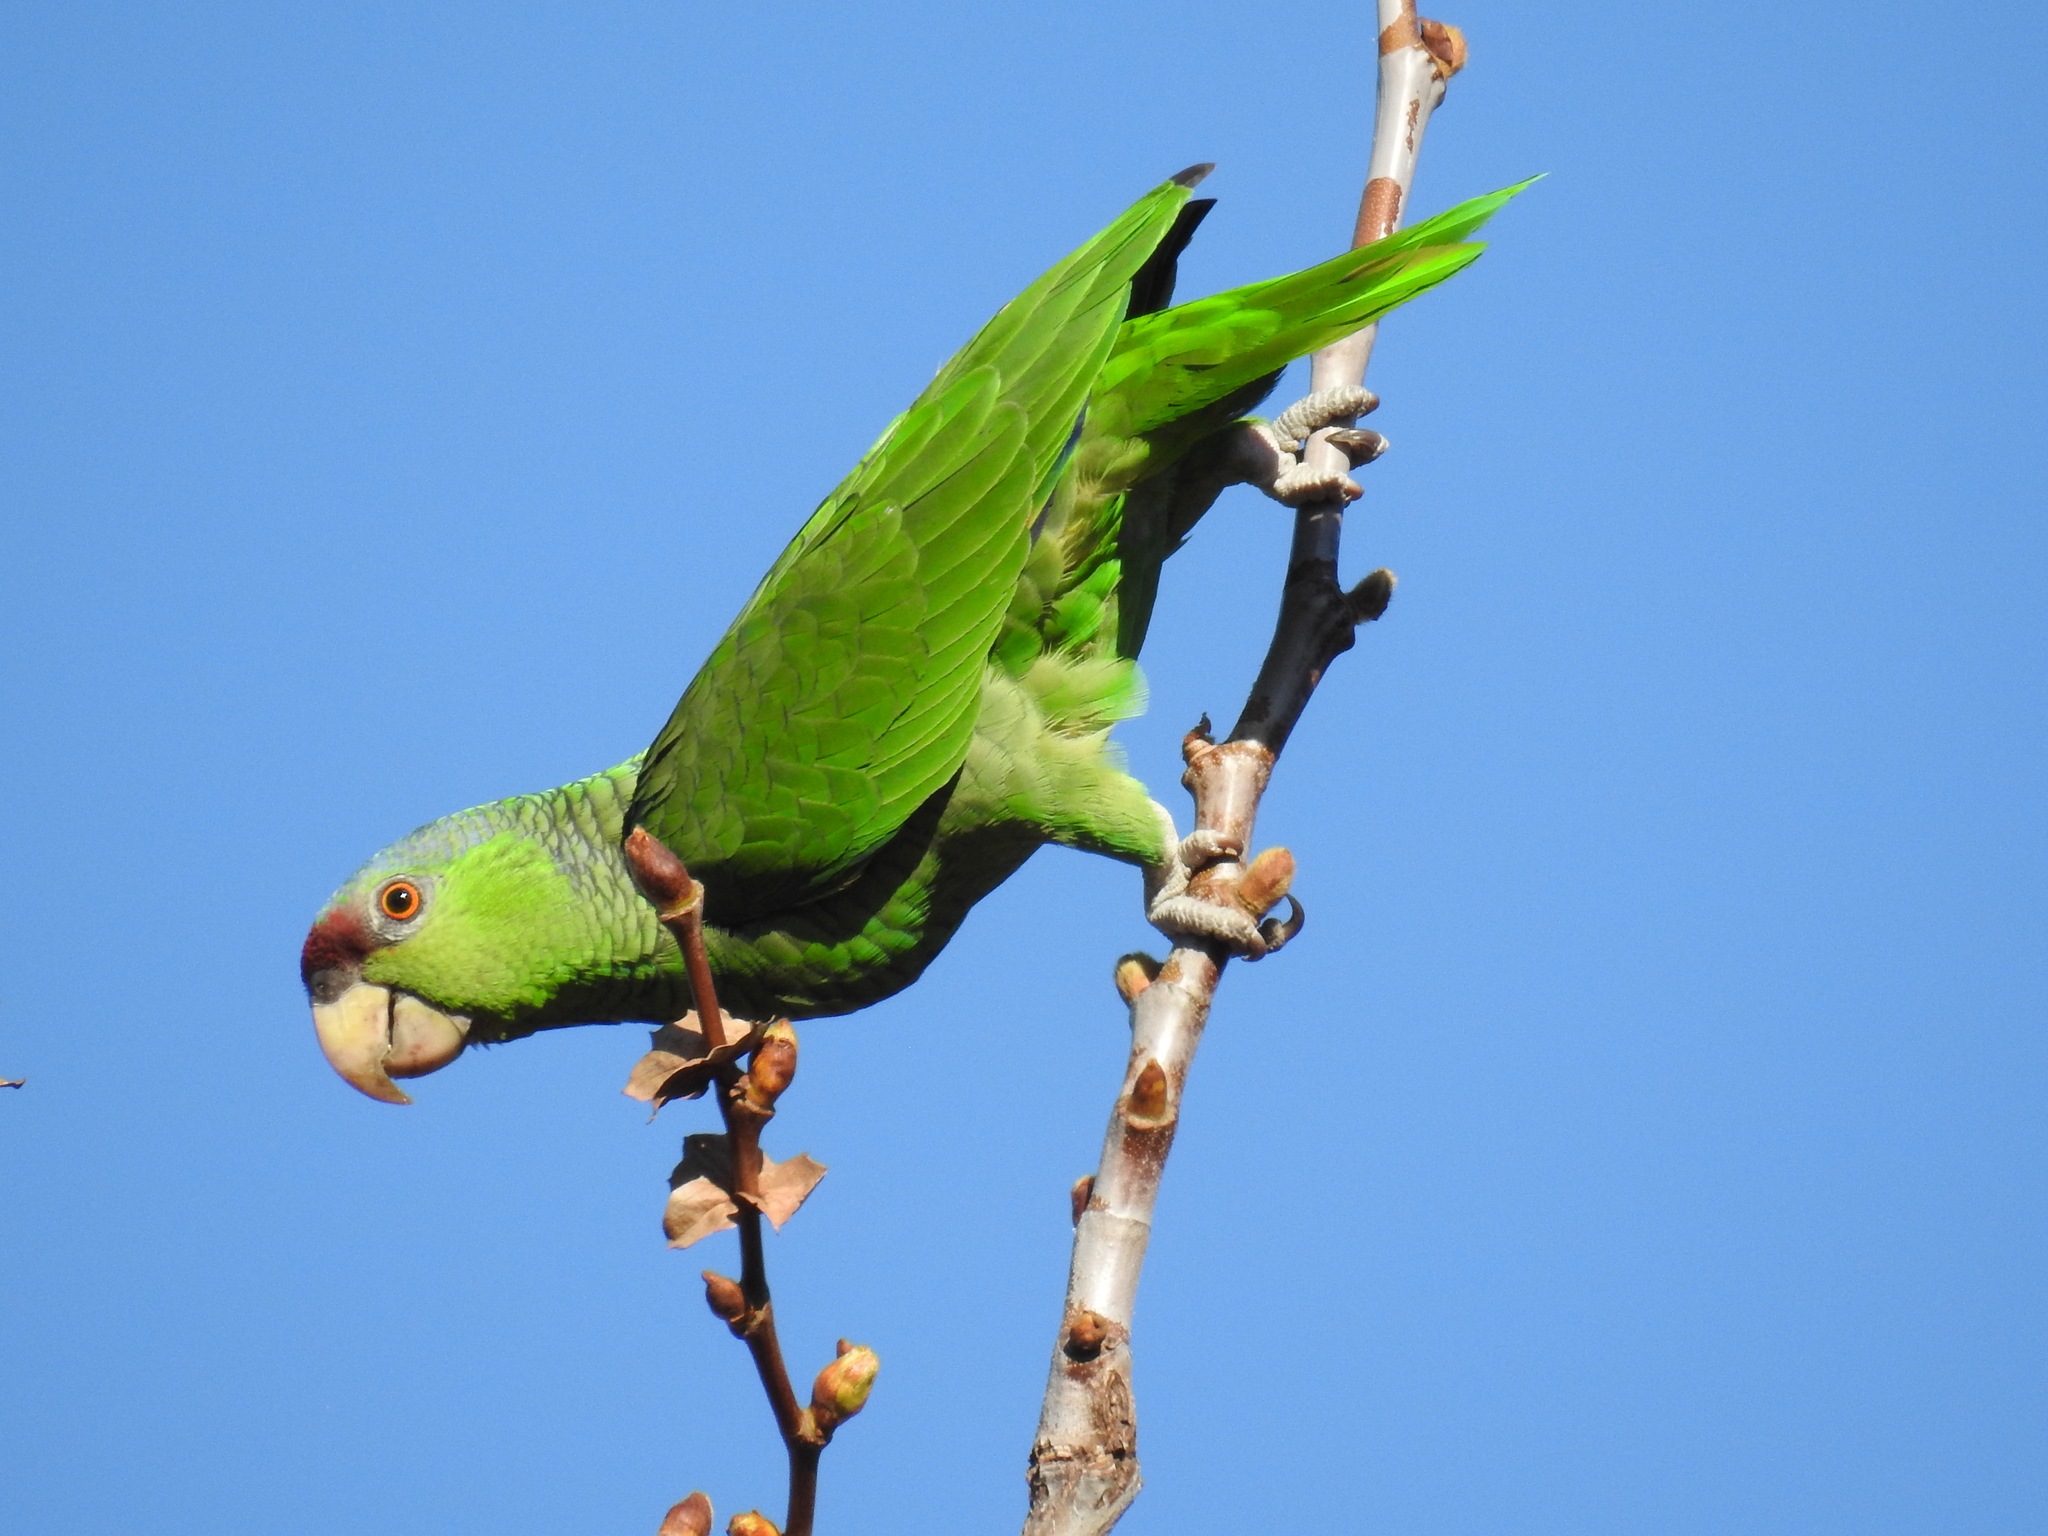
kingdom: Animalia
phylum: Chordata
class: Aves
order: Psittaciformes
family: Psittacidae
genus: Amazona
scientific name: Amazona finschi
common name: Lilac-crowned amazon
